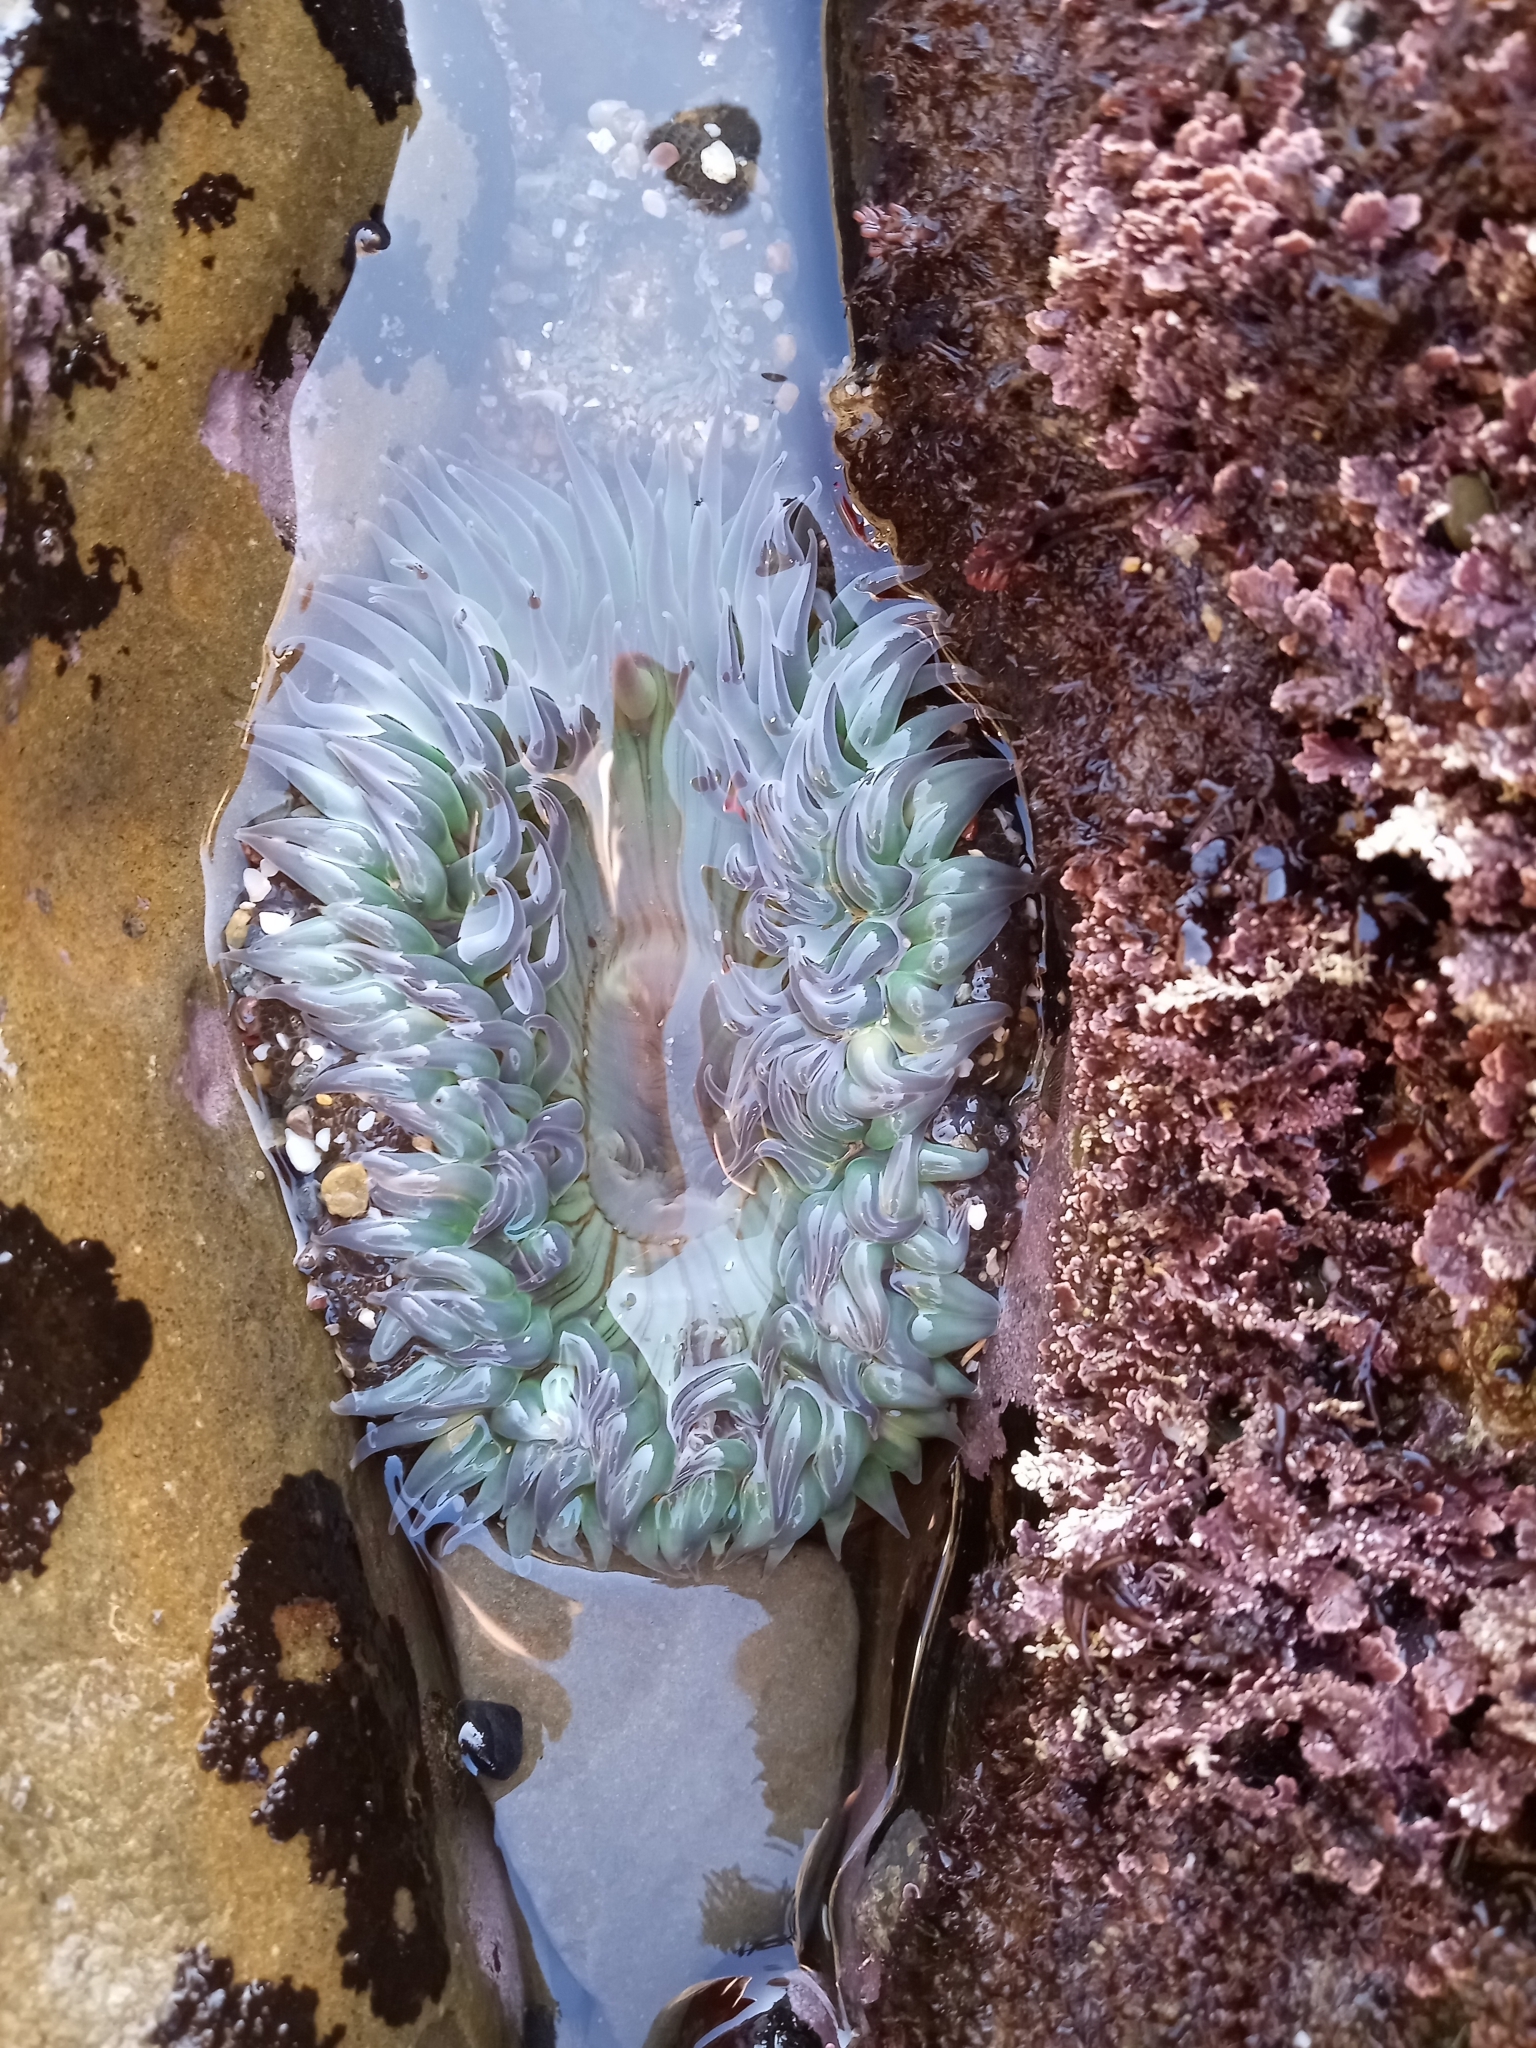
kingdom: Animalia
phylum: Cnidaria
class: Anthozoa
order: Actiniaria
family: Actiniidae
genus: Anthopleura
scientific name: Anthopleura sola
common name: Sun anemone
